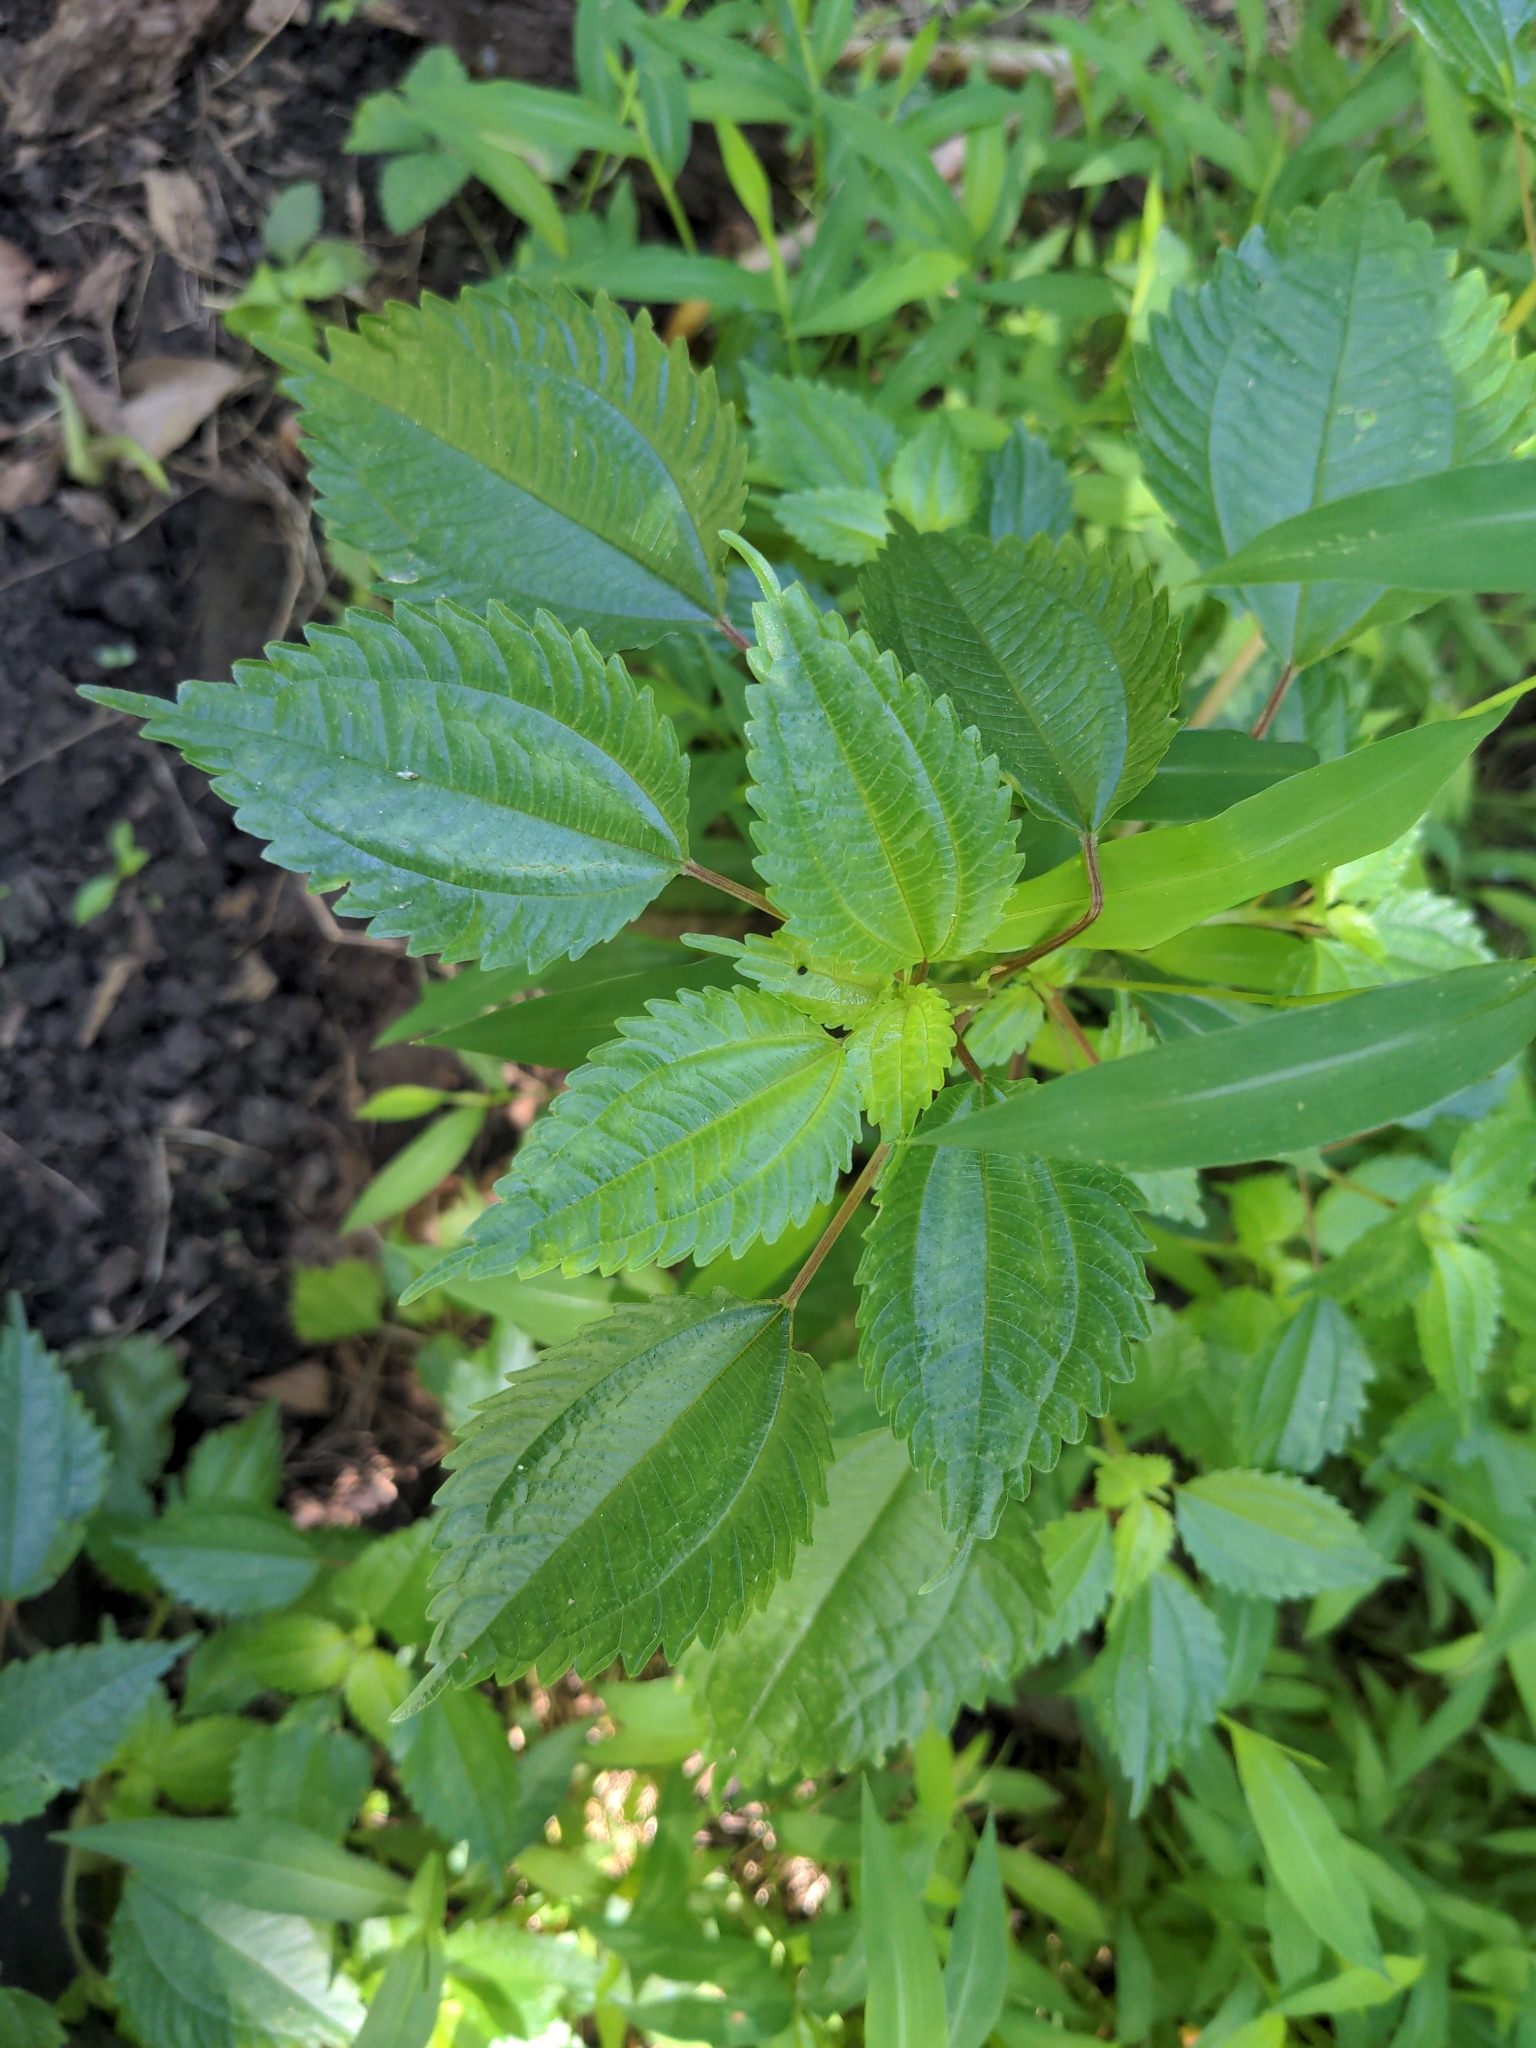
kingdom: Plantae
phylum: Tracheophyta
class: Magnoliopsida
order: Rosales
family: Urticaceae
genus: Pilea
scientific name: Pilea pumila
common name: Clearweed
